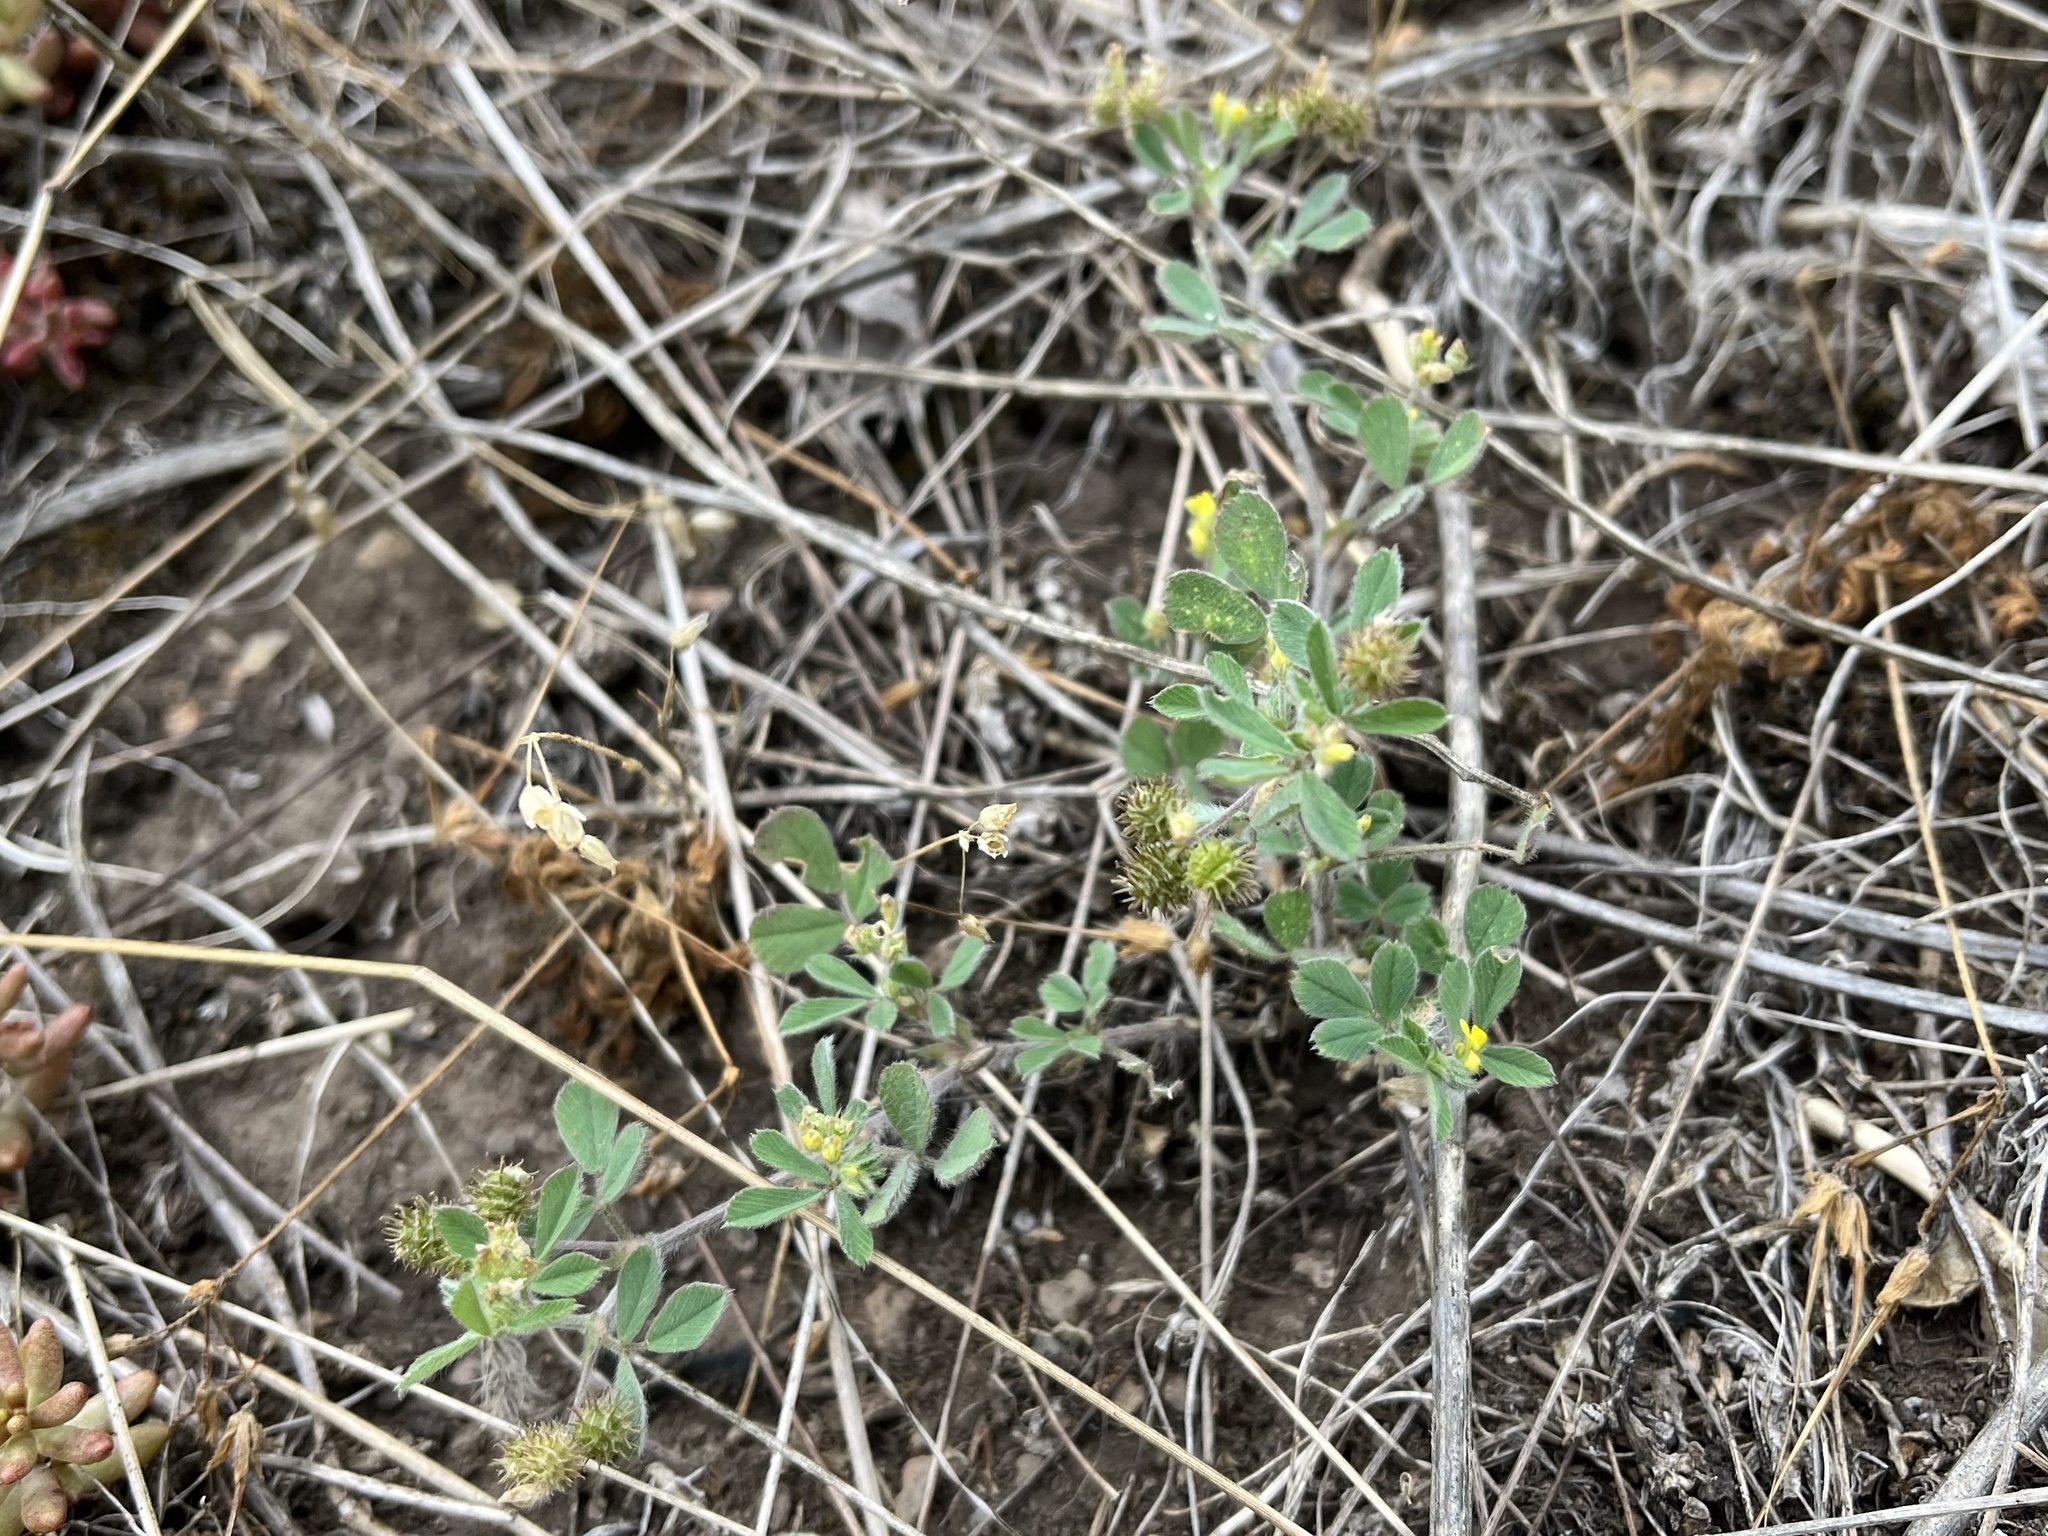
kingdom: Plantae
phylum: Tracheophyta
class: Magnoliopsida
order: Fabales
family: Fabaceae
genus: Medicago
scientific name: Medicago minima
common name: Little bur-clover
